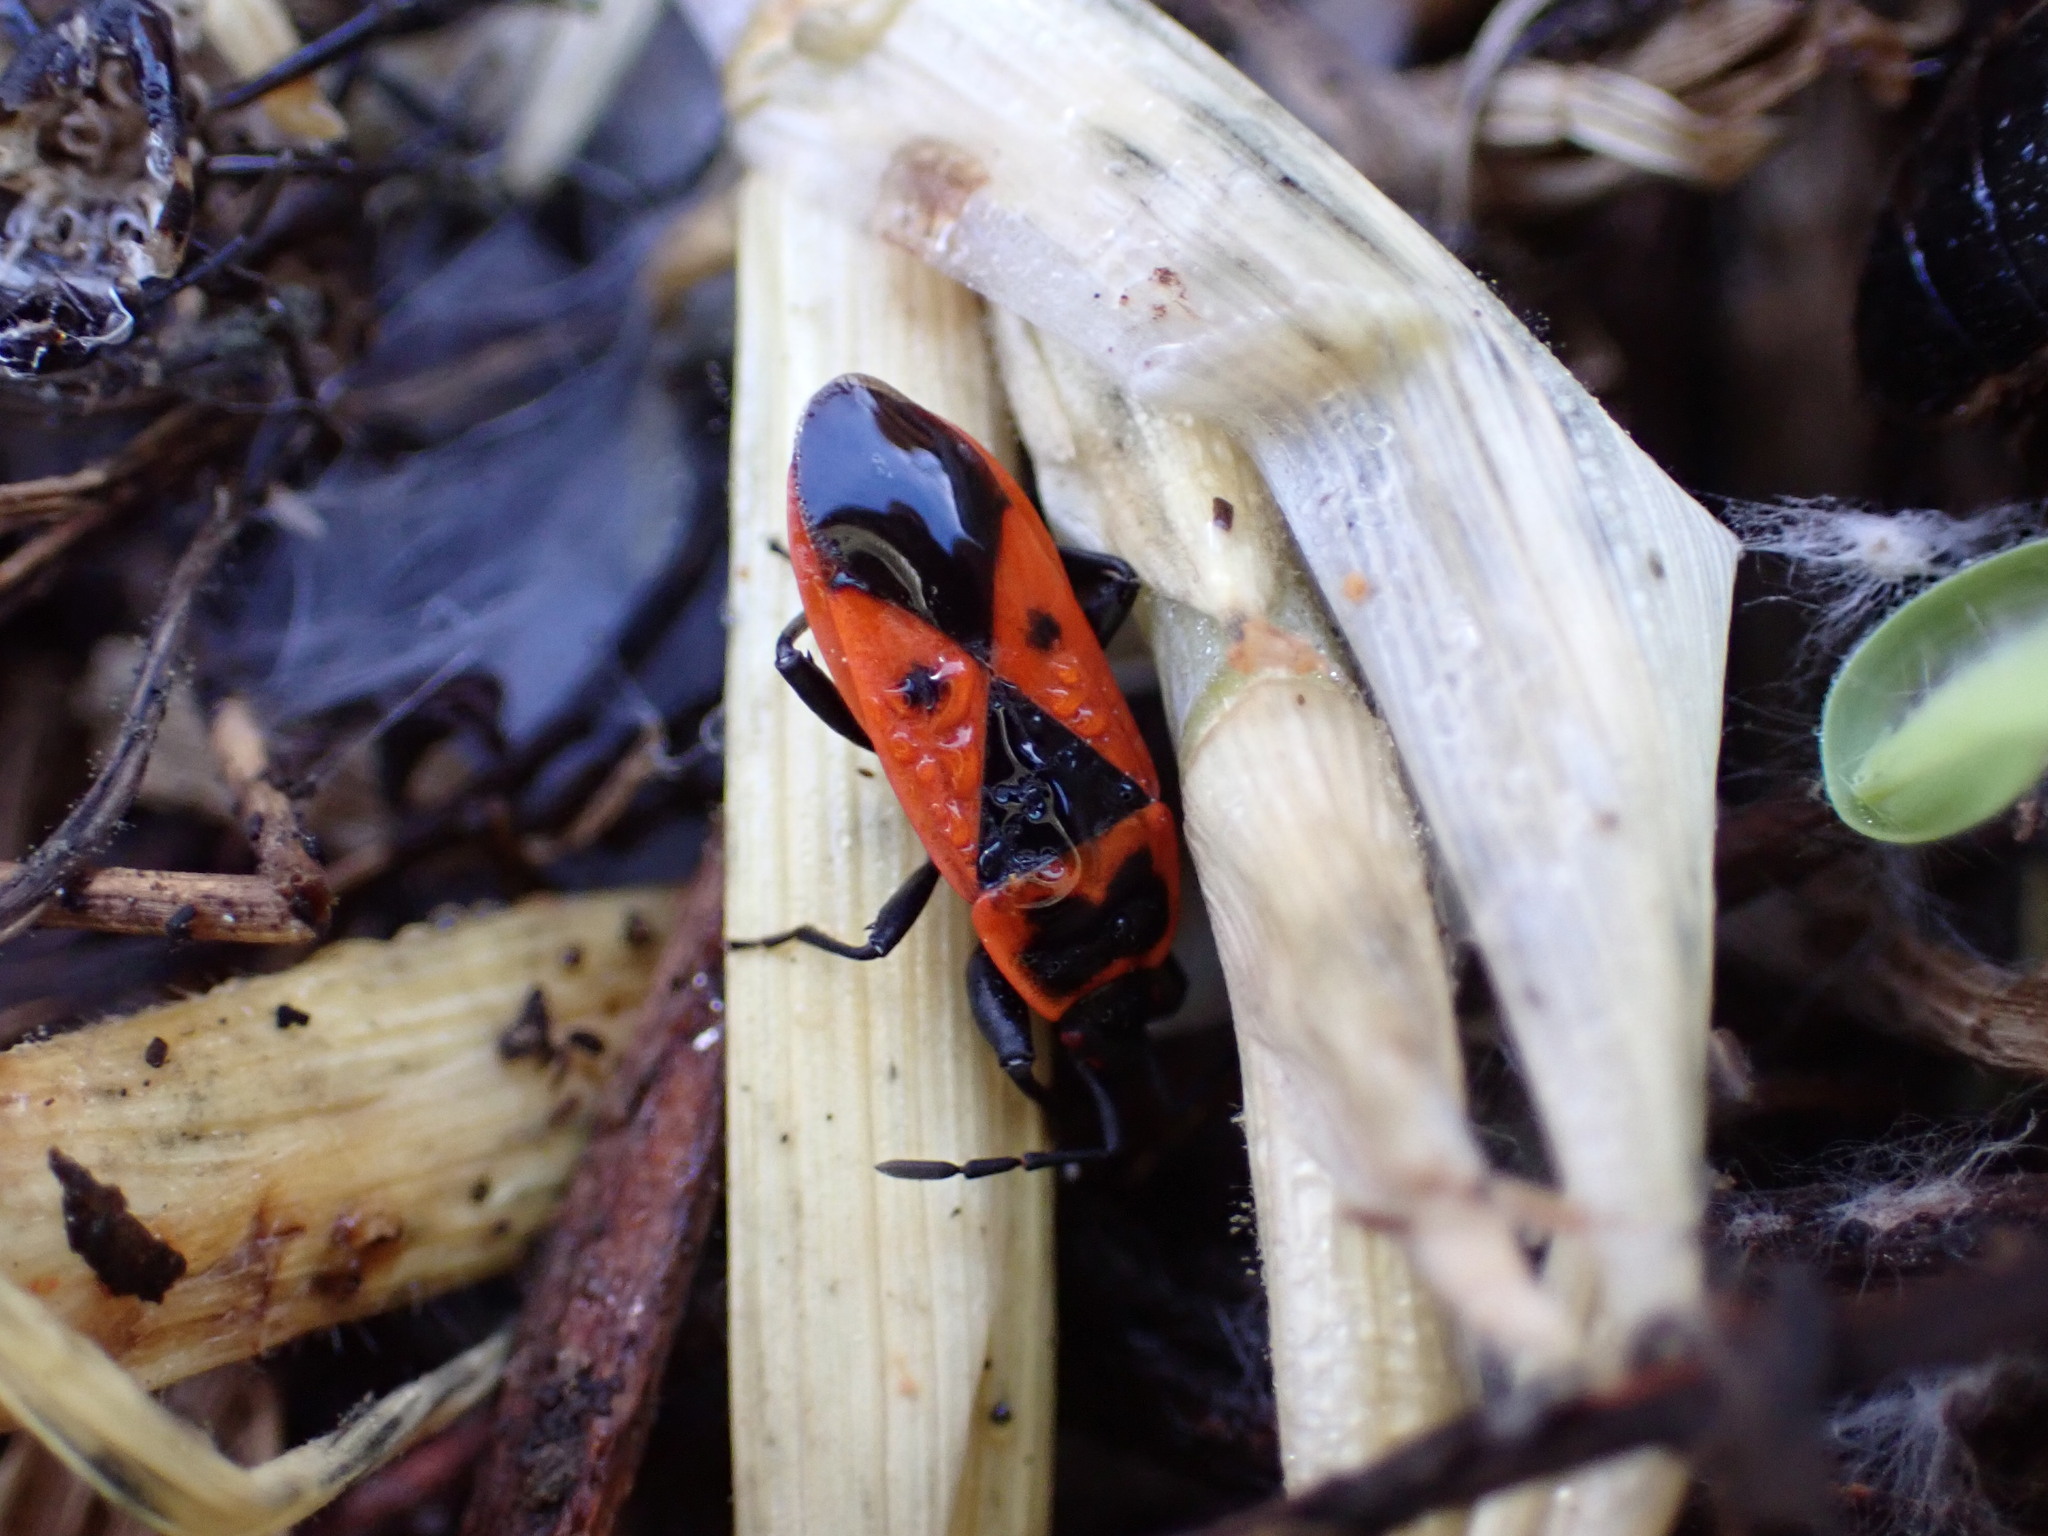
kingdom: Animalia
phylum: Arthropoda
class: Insecta
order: Hemiptera
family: Pyrrhocoridae
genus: Scantius
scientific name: Scantius aegyptius
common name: Red bug
